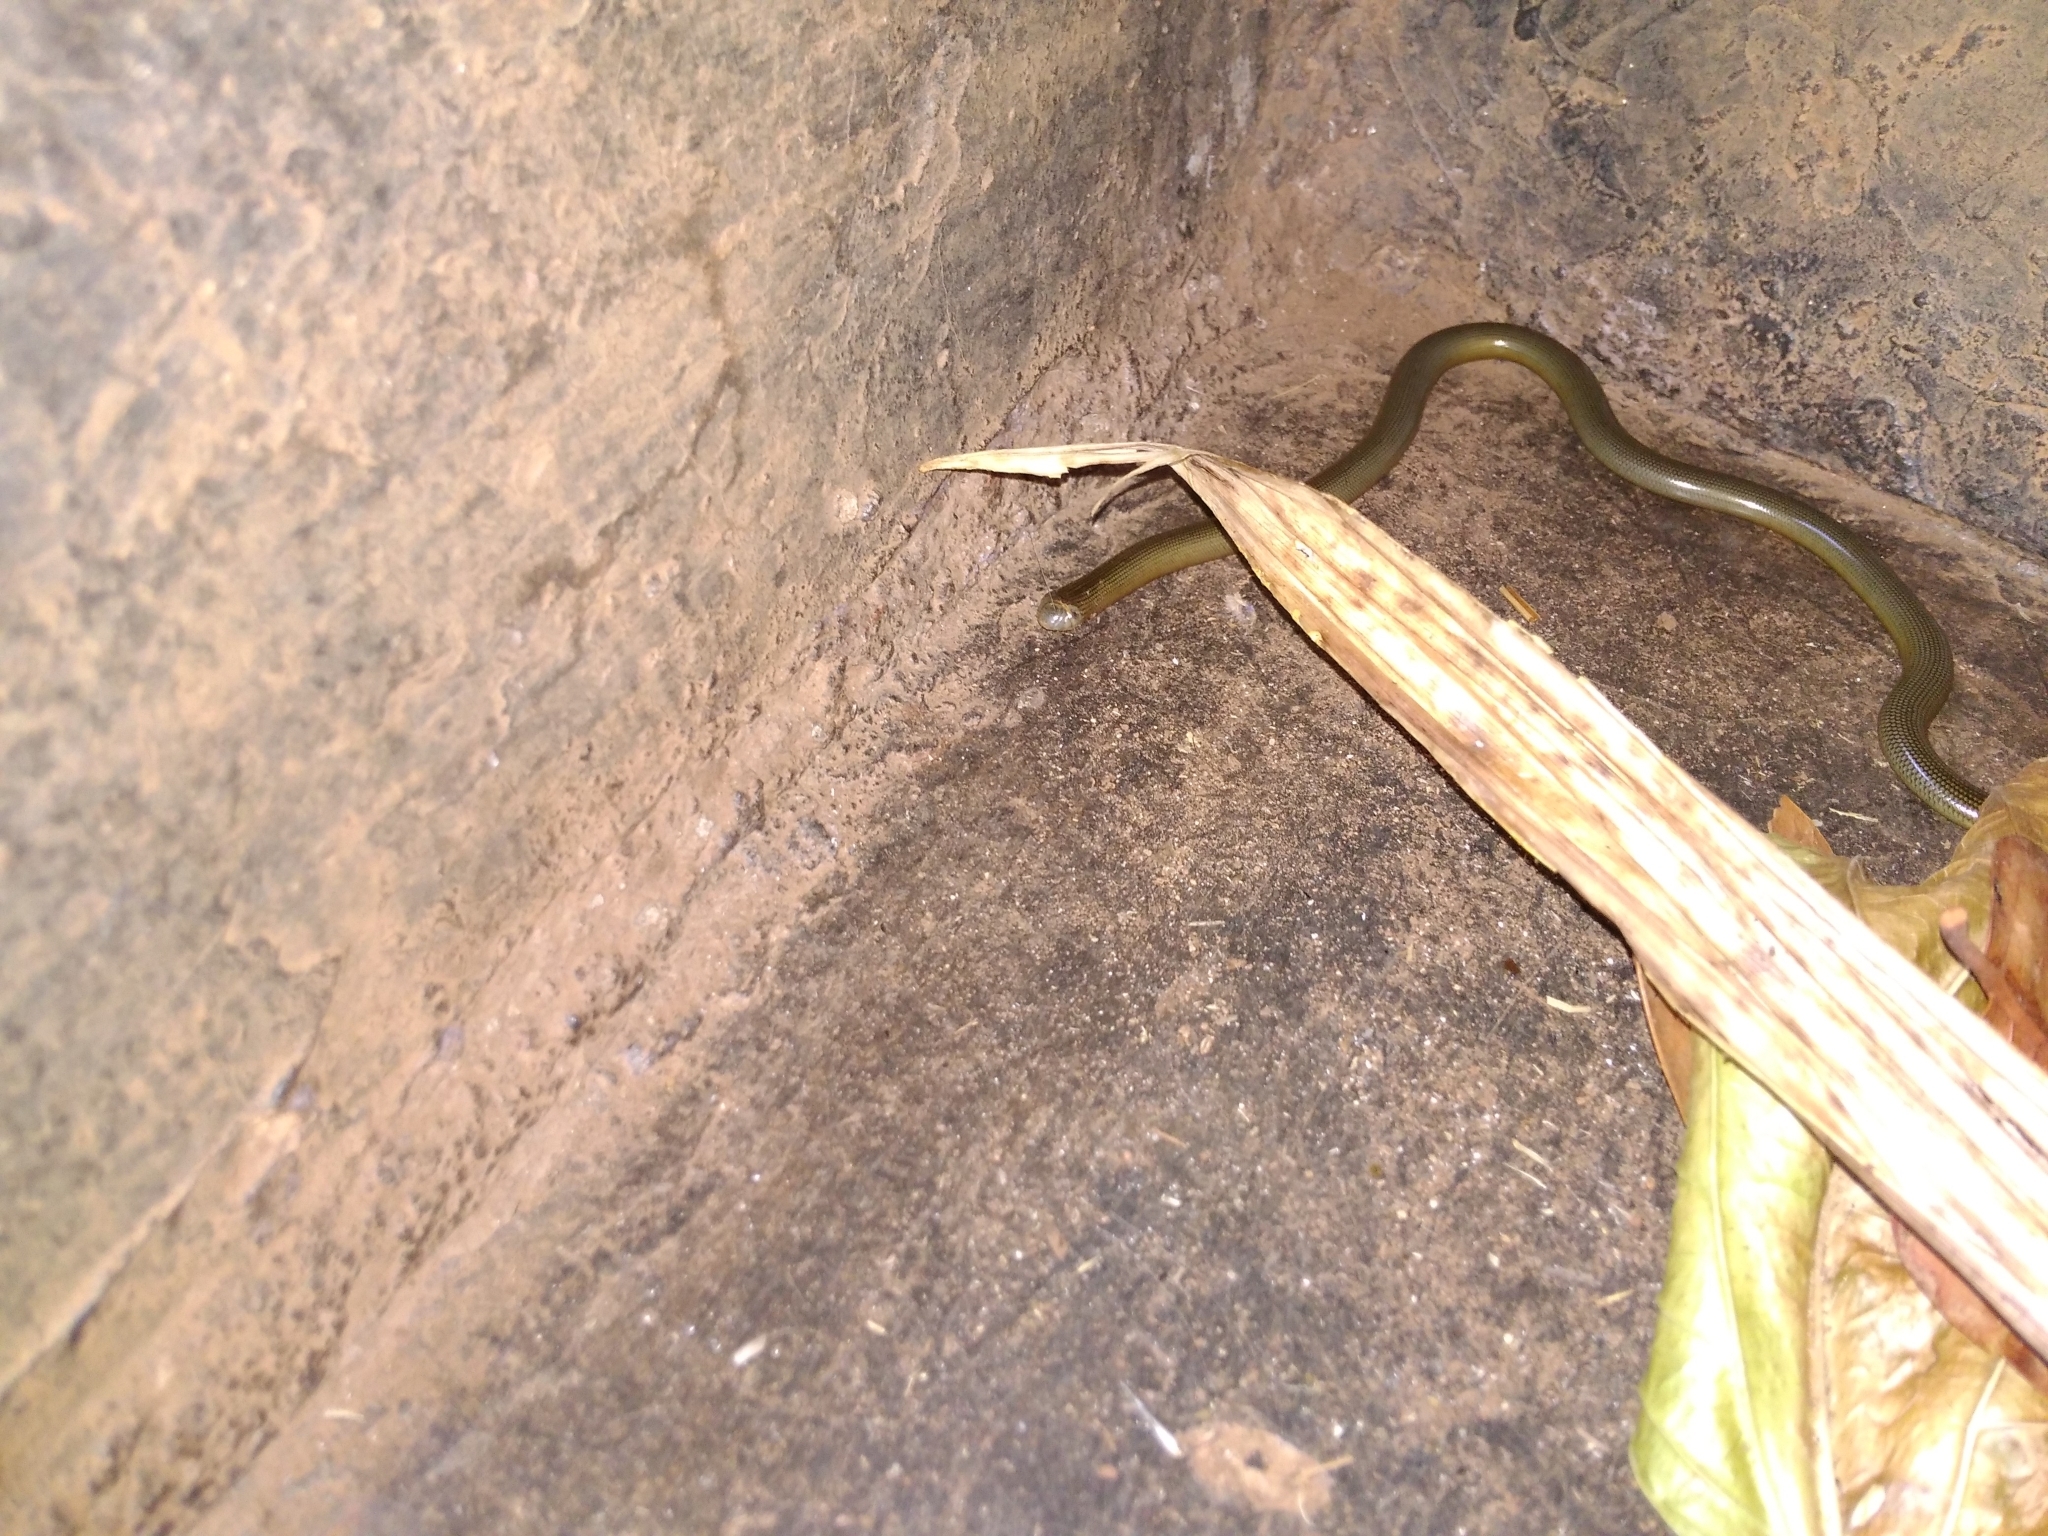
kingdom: Animalia
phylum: Chordata
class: Squamata
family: Typhlopidae
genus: Afrotyphlops
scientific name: Afrotyphlops mucruso
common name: Zambezi blind snake
